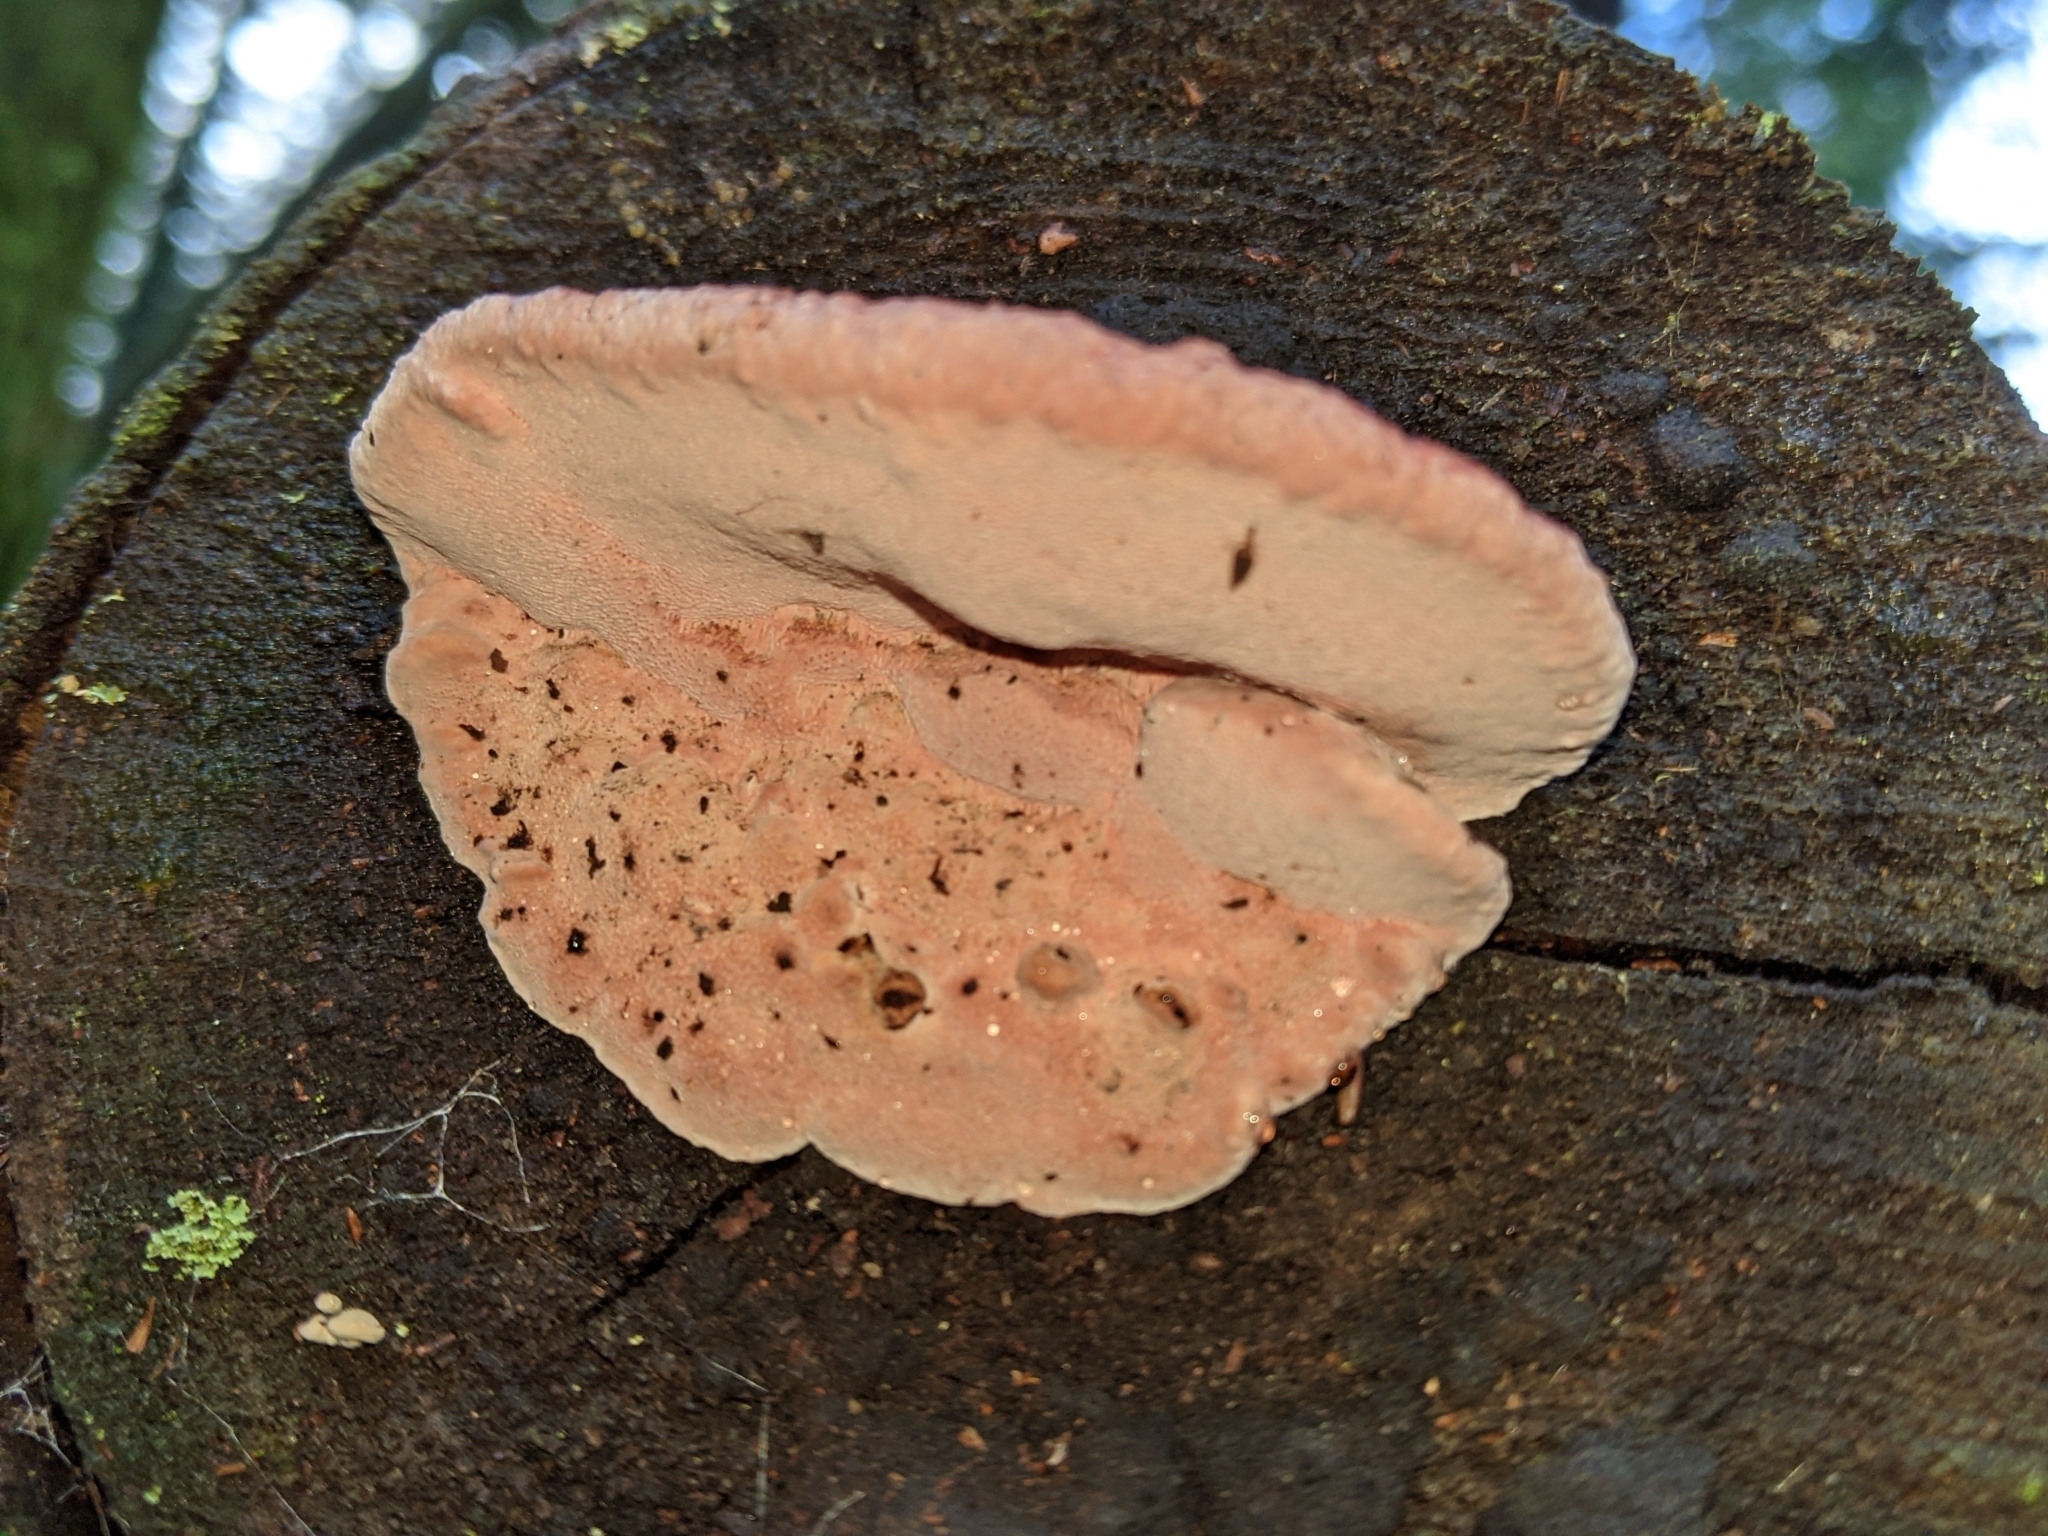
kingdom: Fungi
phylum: Basidiomycota
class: Agaricomycetes
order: Polyporales
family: Fomitopsidaceae
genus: Rhodofomes
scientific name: Rhodofomes cajanderi
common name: Rosy conk
